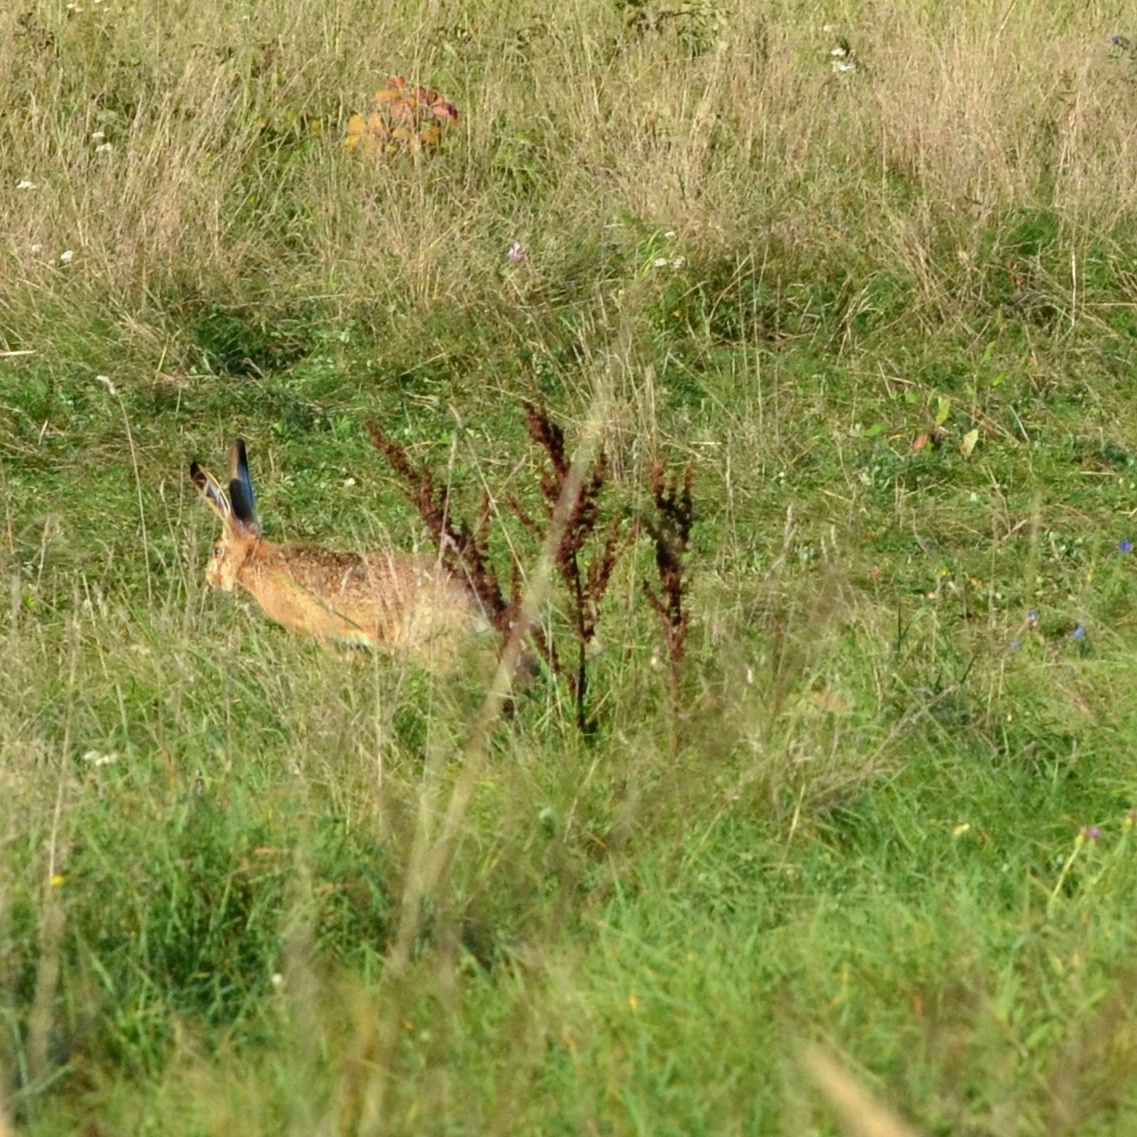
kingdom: Animalia
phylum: Chordata
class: Mammalia
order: Lagomorpha
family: Leporidae
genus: Lepus
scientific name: Lepus europaeus
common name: European hare
